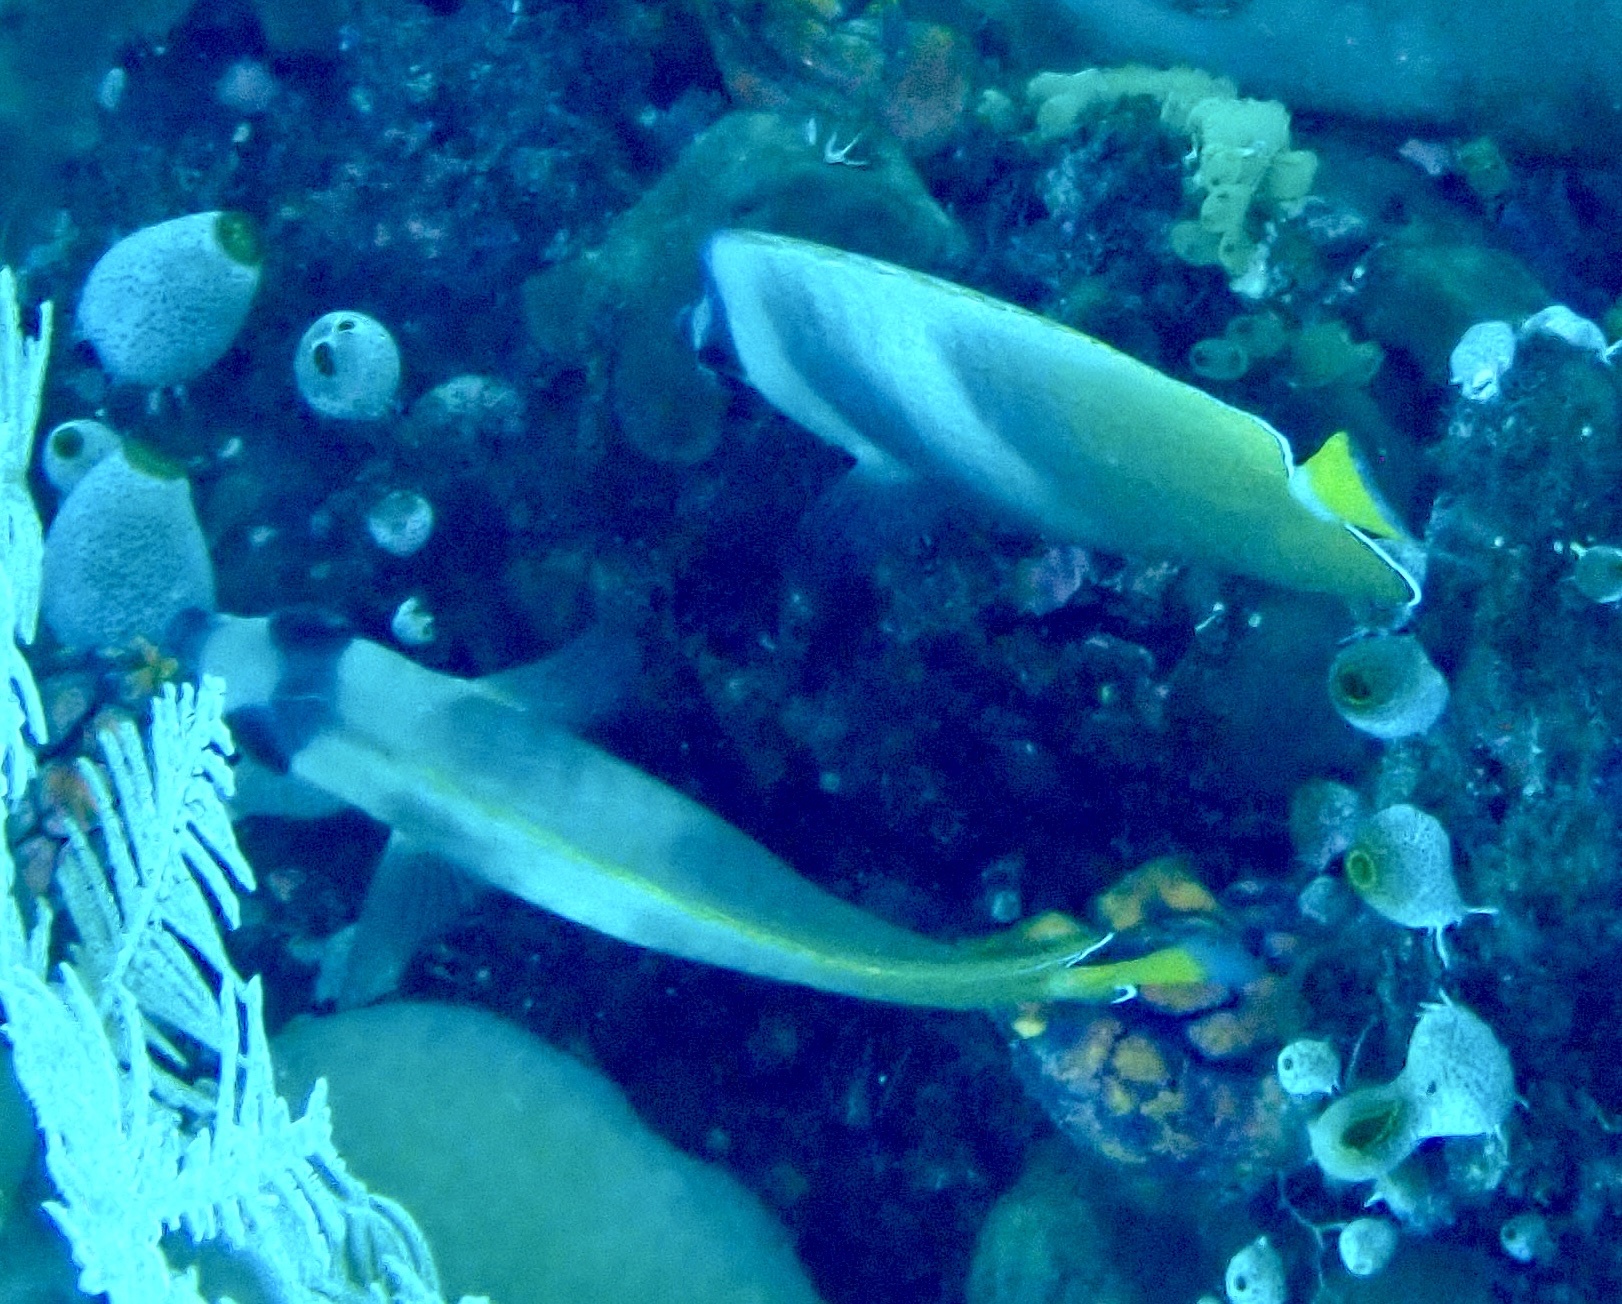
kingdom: Animalia
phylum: Chordata
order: Perciformes
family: Chaetodontidae
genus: Chaetodon
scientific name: Chaetodon kleinii
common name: Klein's butterflyfish
